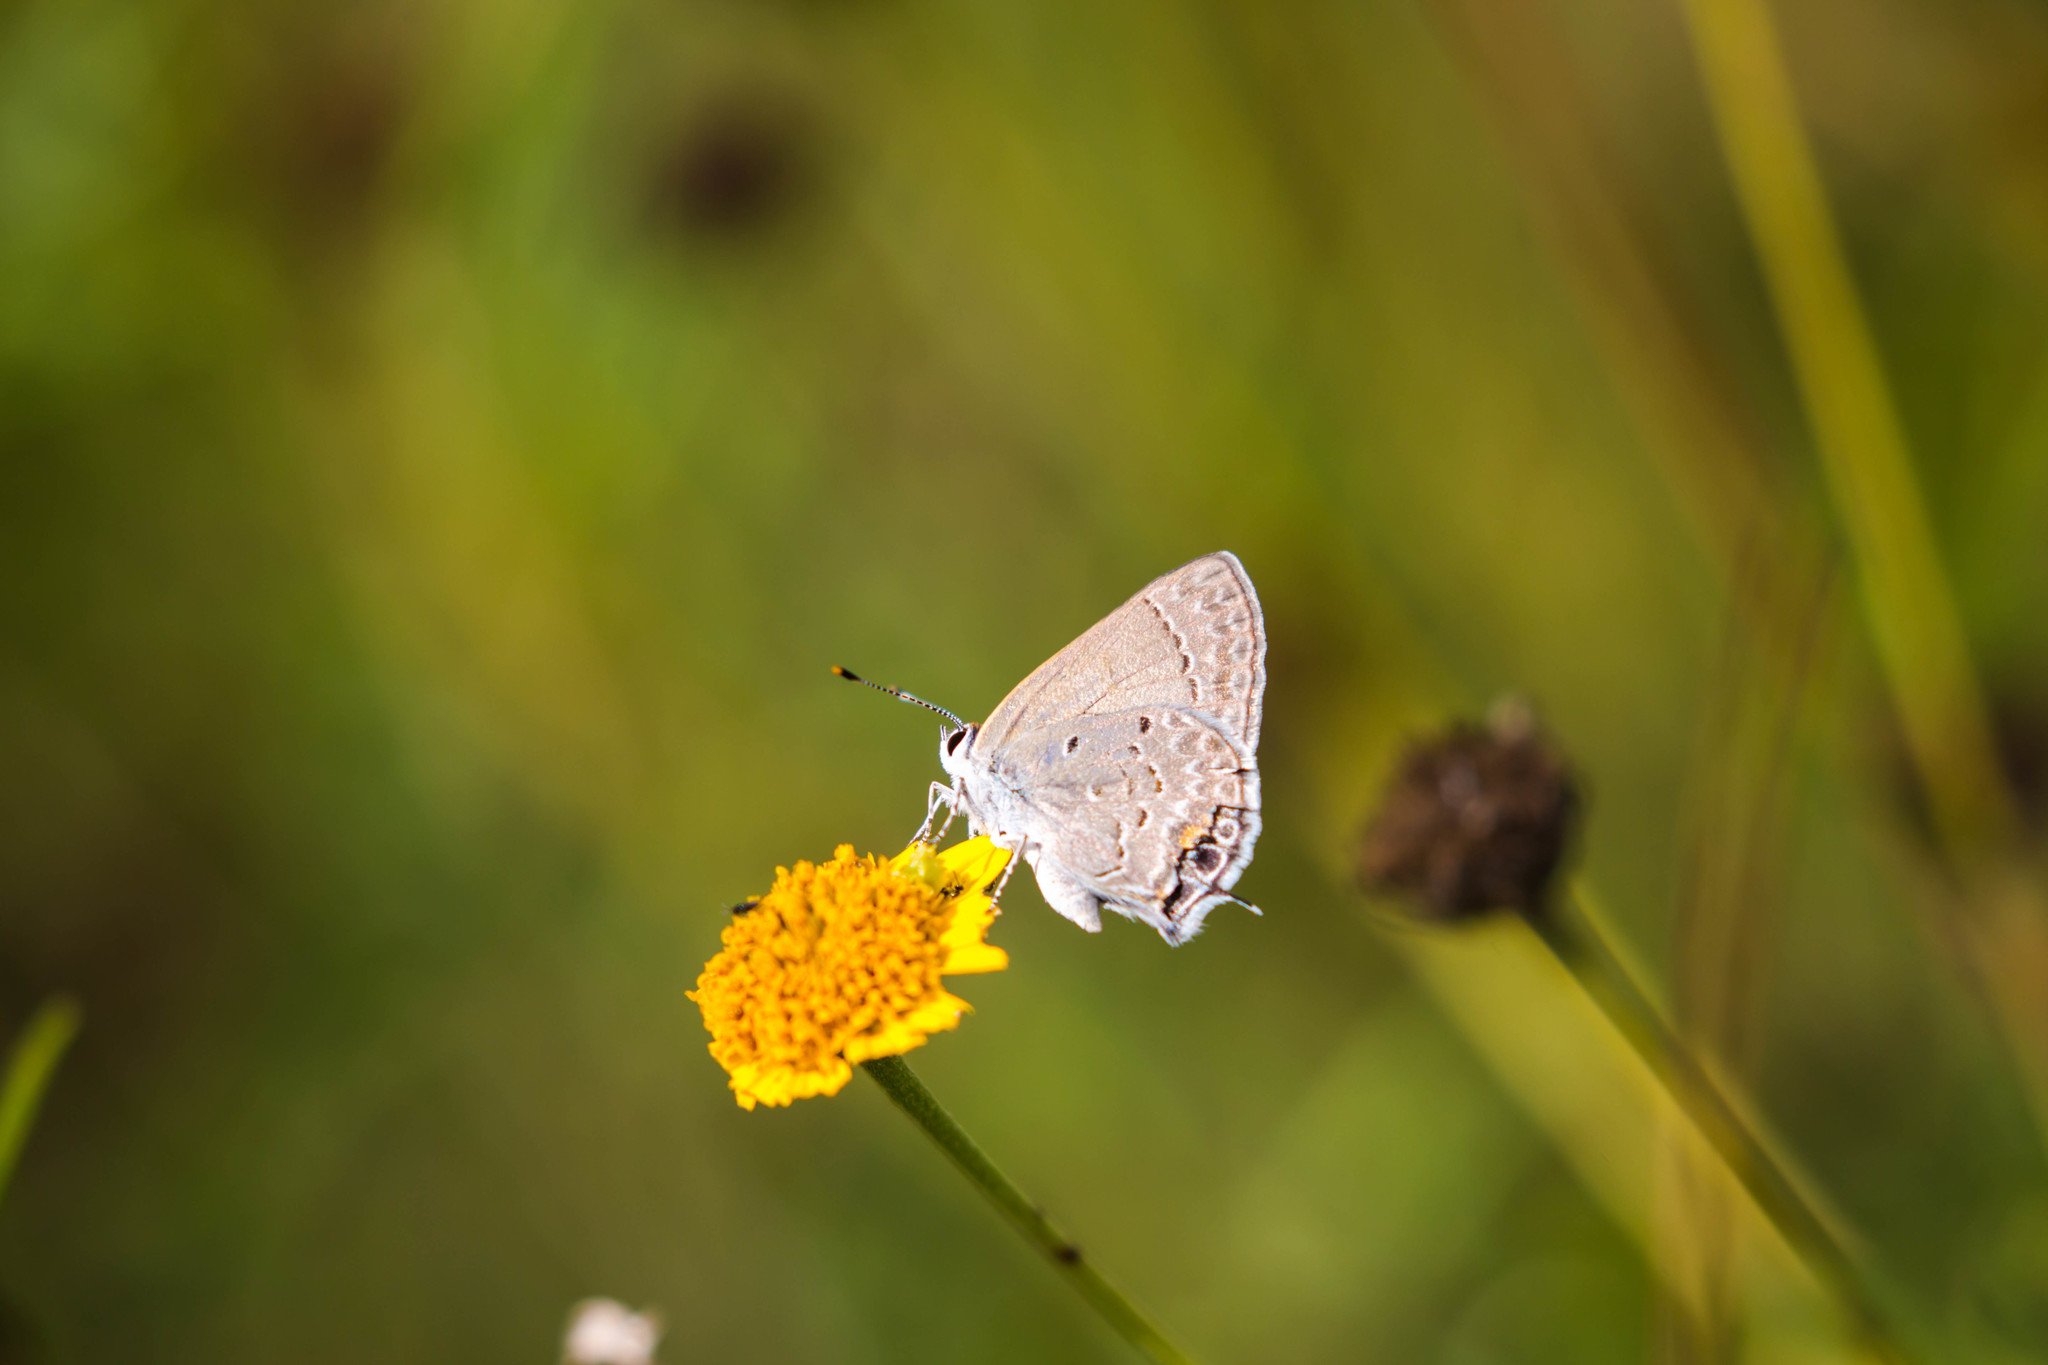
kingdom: Animalia
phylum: Arthropoda
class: Insecta
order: Lepidoptera
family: Lycaenidae
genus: Callicista
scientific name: Callicista columella
